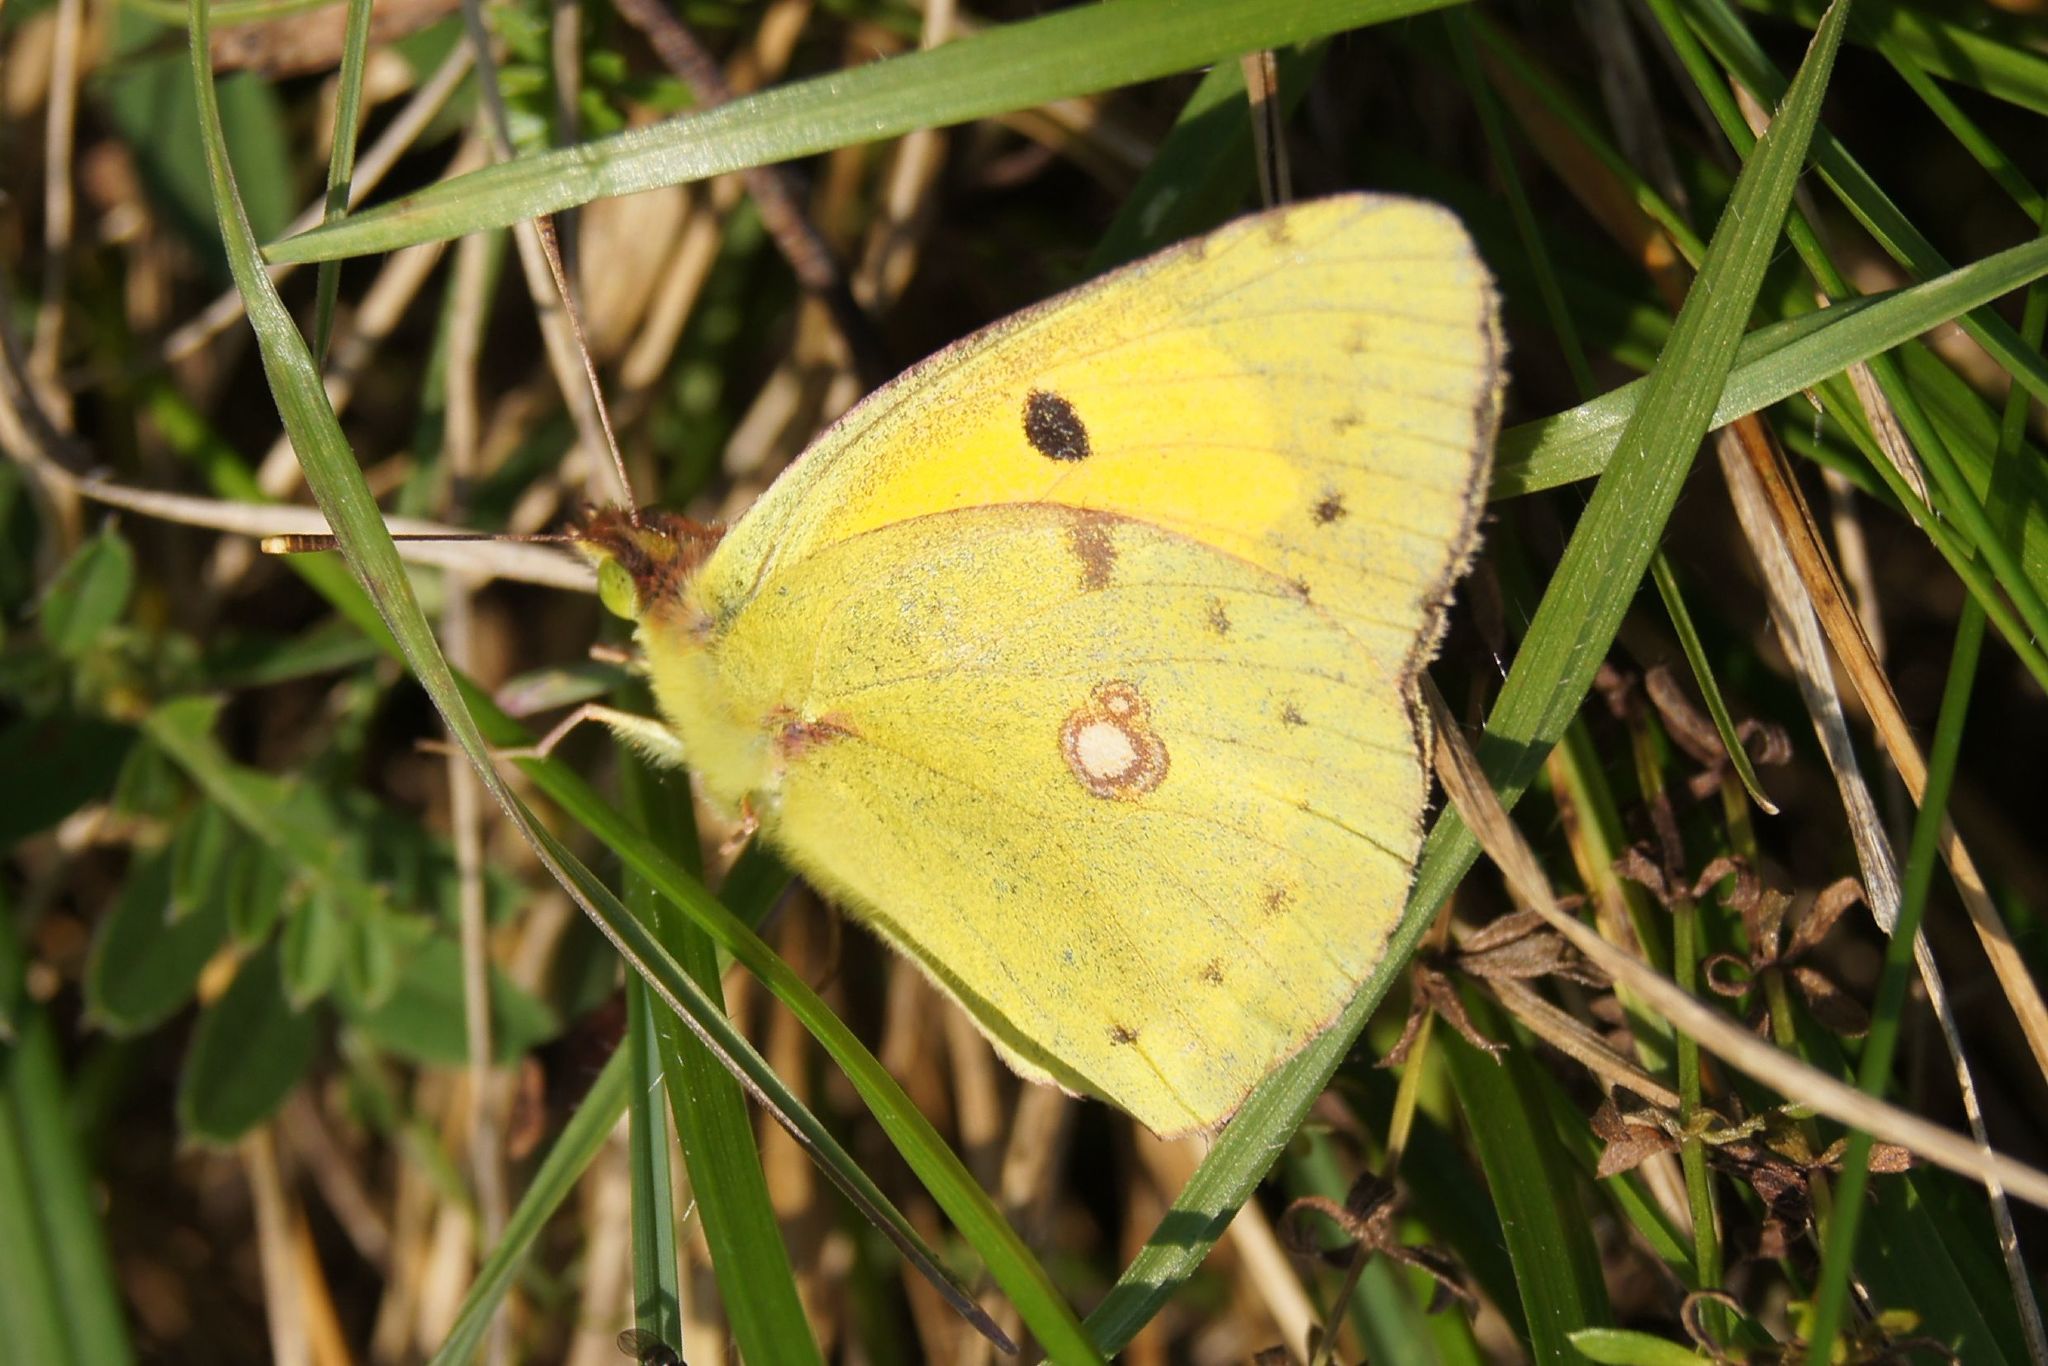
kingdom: Animalia
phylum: Arthropoda
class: Insecta
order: Lepidoptera
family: Pieridae
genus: Colias
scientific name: Colias croceus
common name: Clouded yellow
